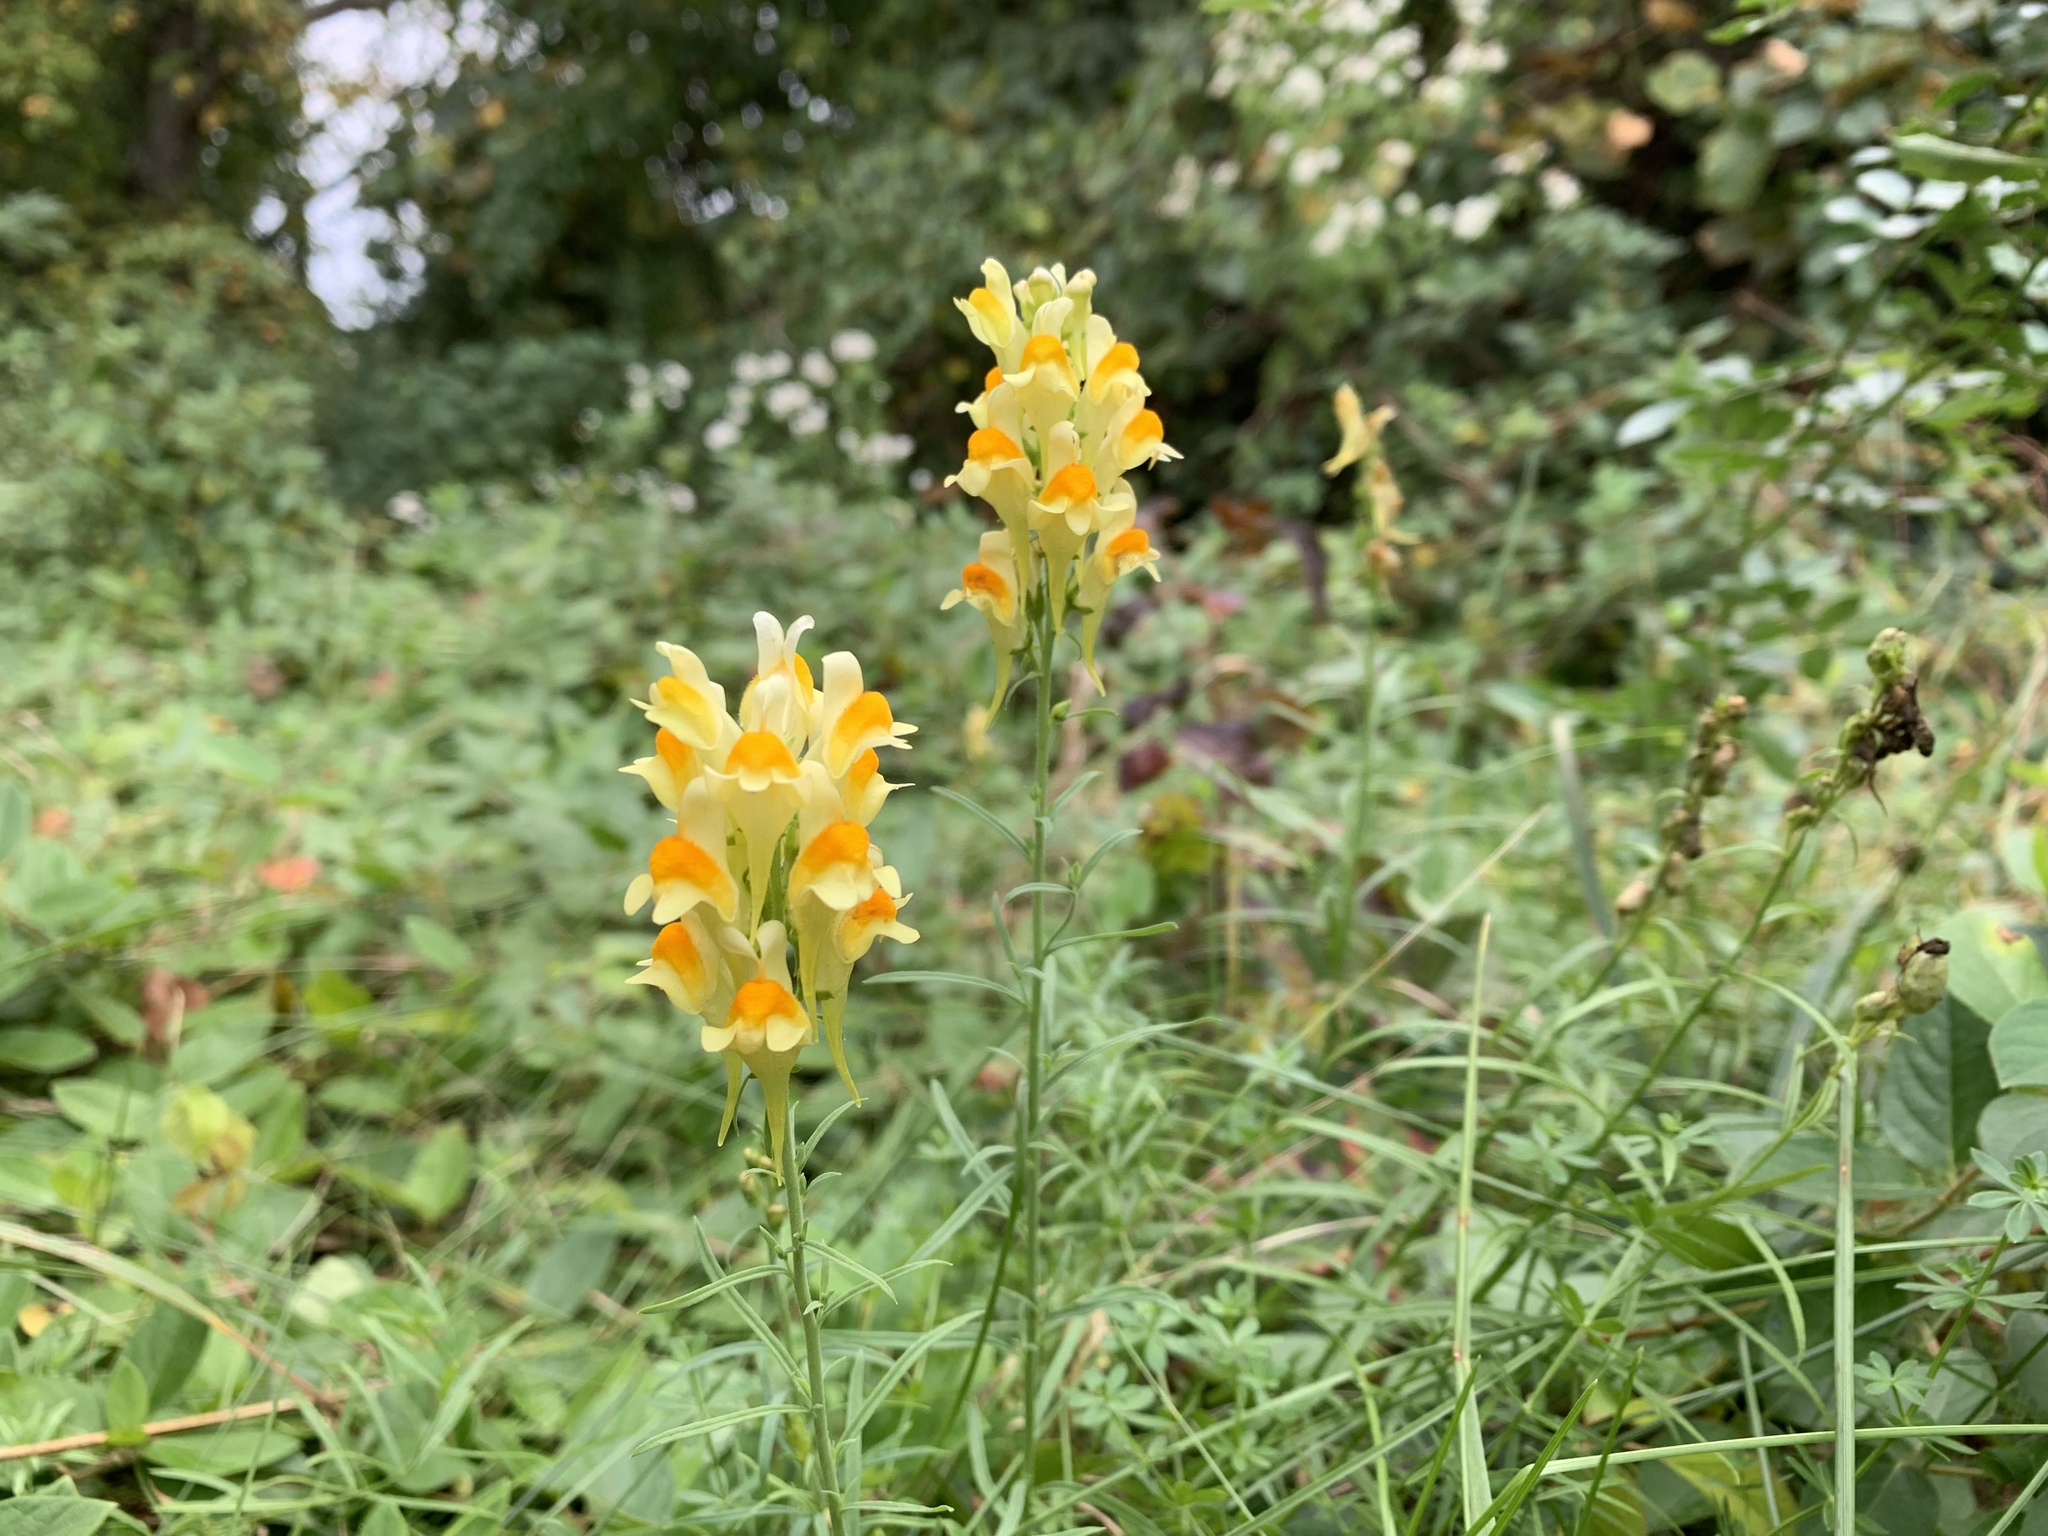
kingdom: Plantae
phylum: Tracheophyta
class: Magnoliopsida
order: Lamiales
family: Plantaginaceae
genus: Linaria
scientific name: Linaria vulgaris
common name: Butter and eggs
